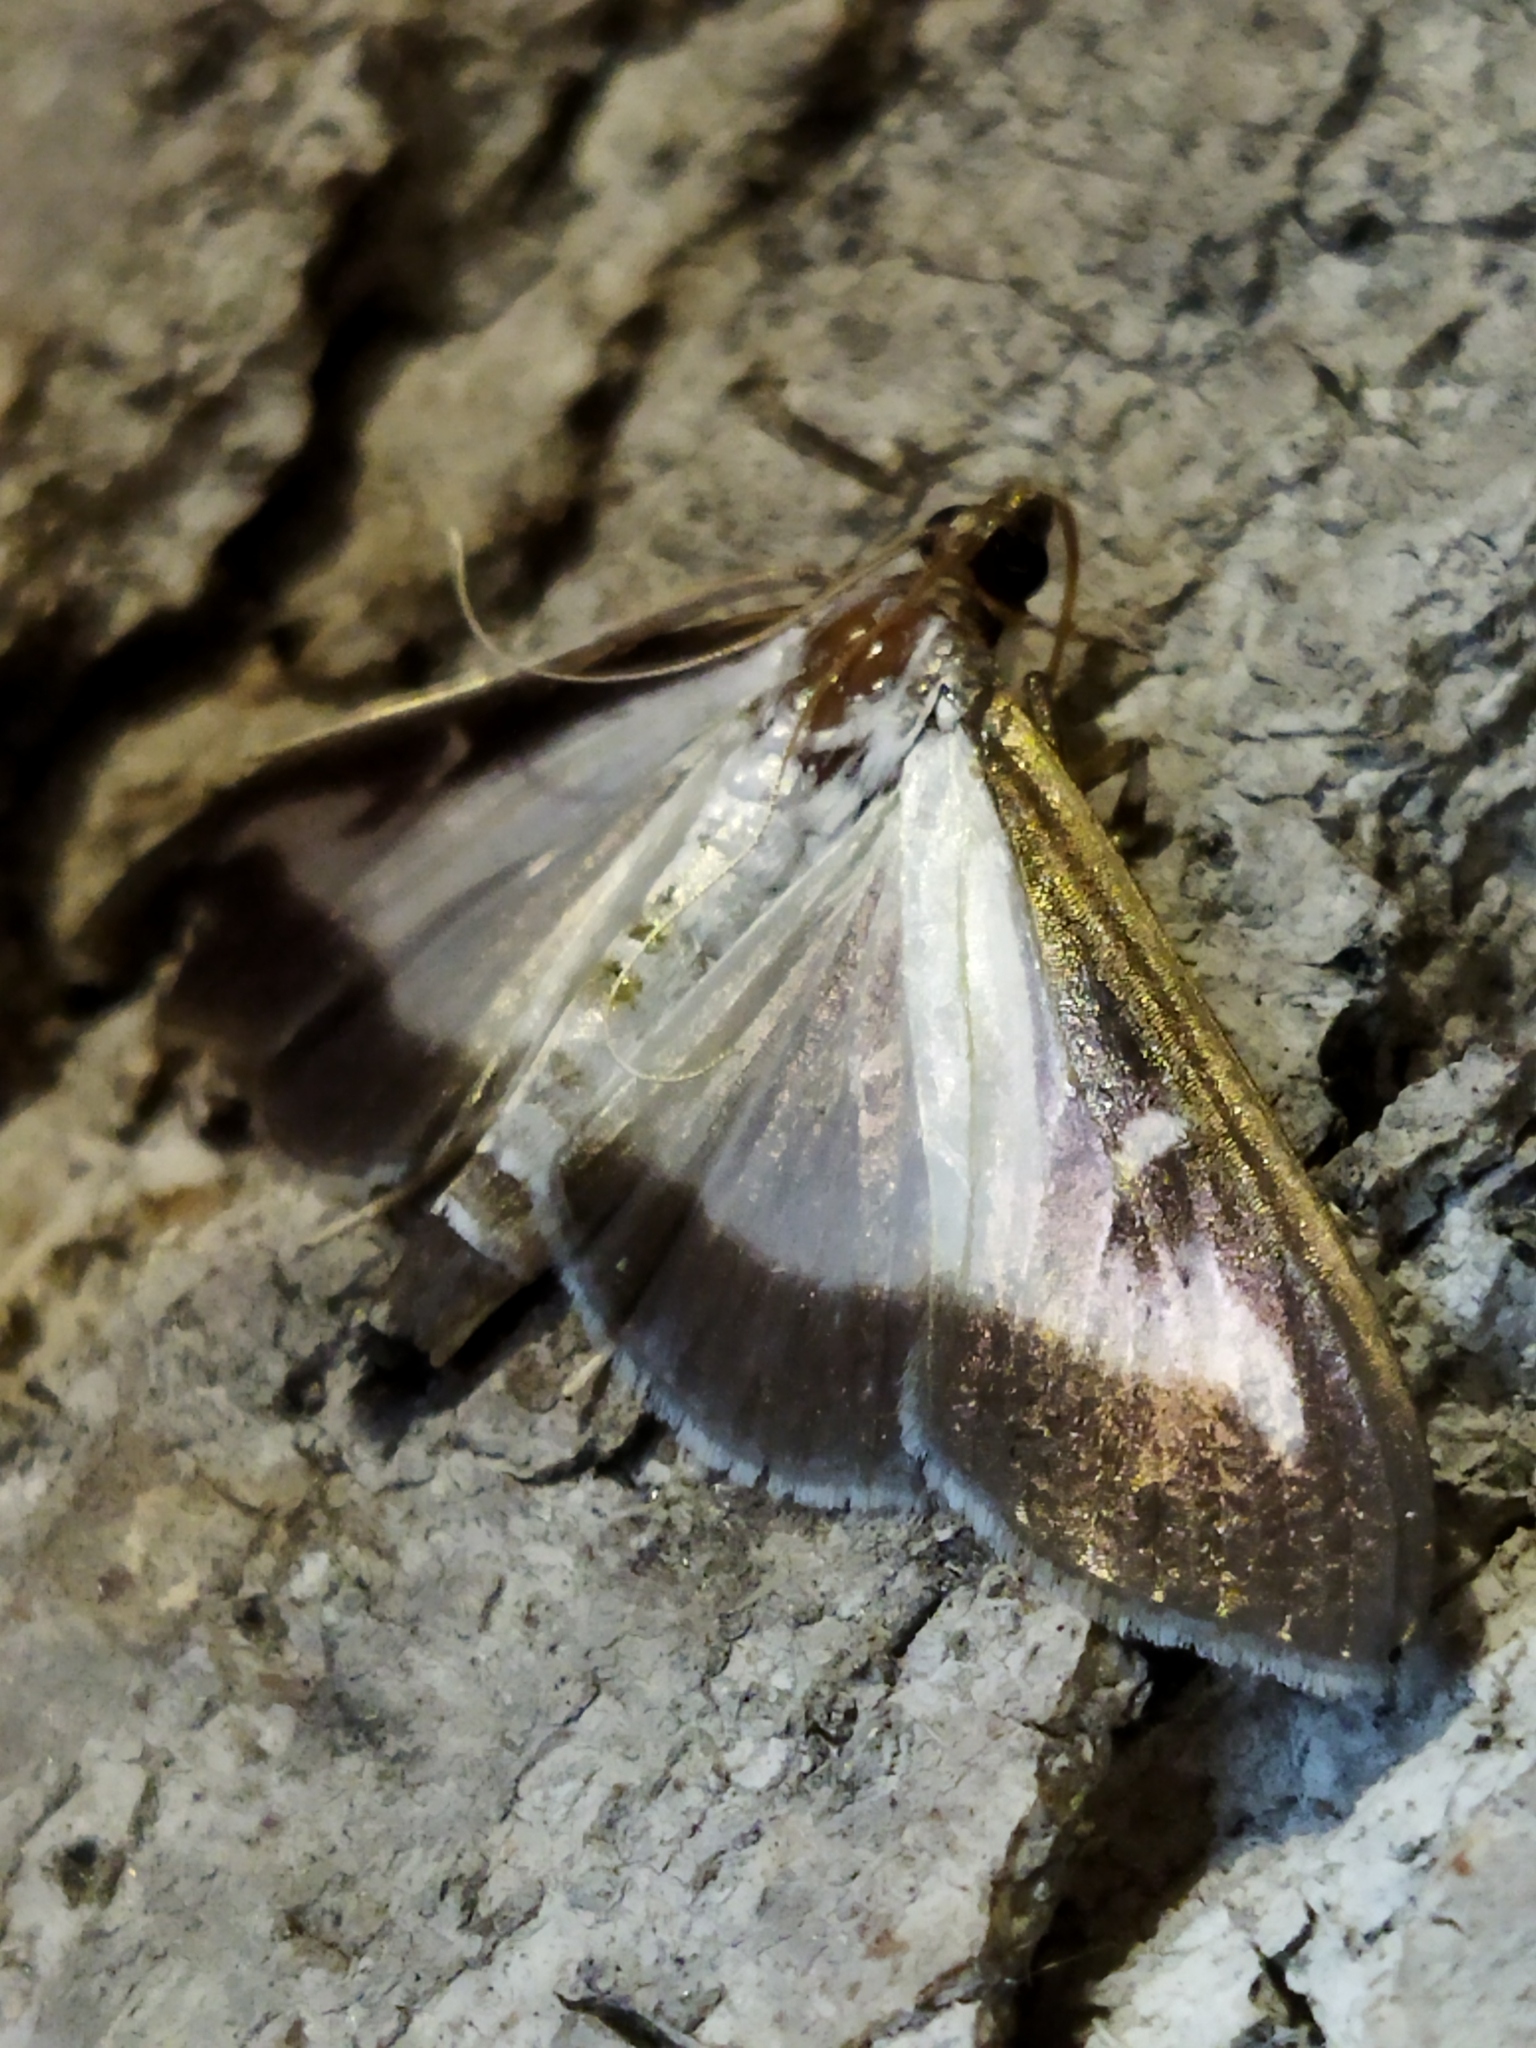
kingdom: Animalia
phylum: Arthropoda
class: Insecta
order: Lepidoptera
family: Crambidae
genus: Cydalima
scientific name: Cydalima perspectalis
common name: Box tree moth
